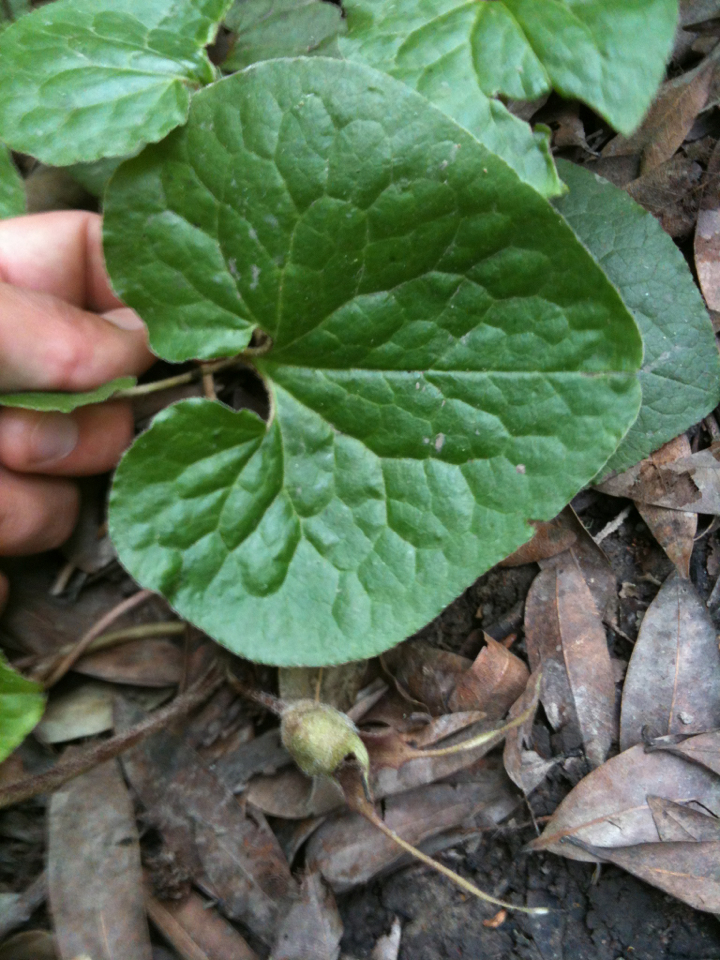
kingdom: Plantae
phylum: Tracheophyta
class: Magnoliopsida
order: Piperales
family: Aristolochiaceae
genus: Asarum
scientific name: Asarum caudatum
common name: Wild ginger
